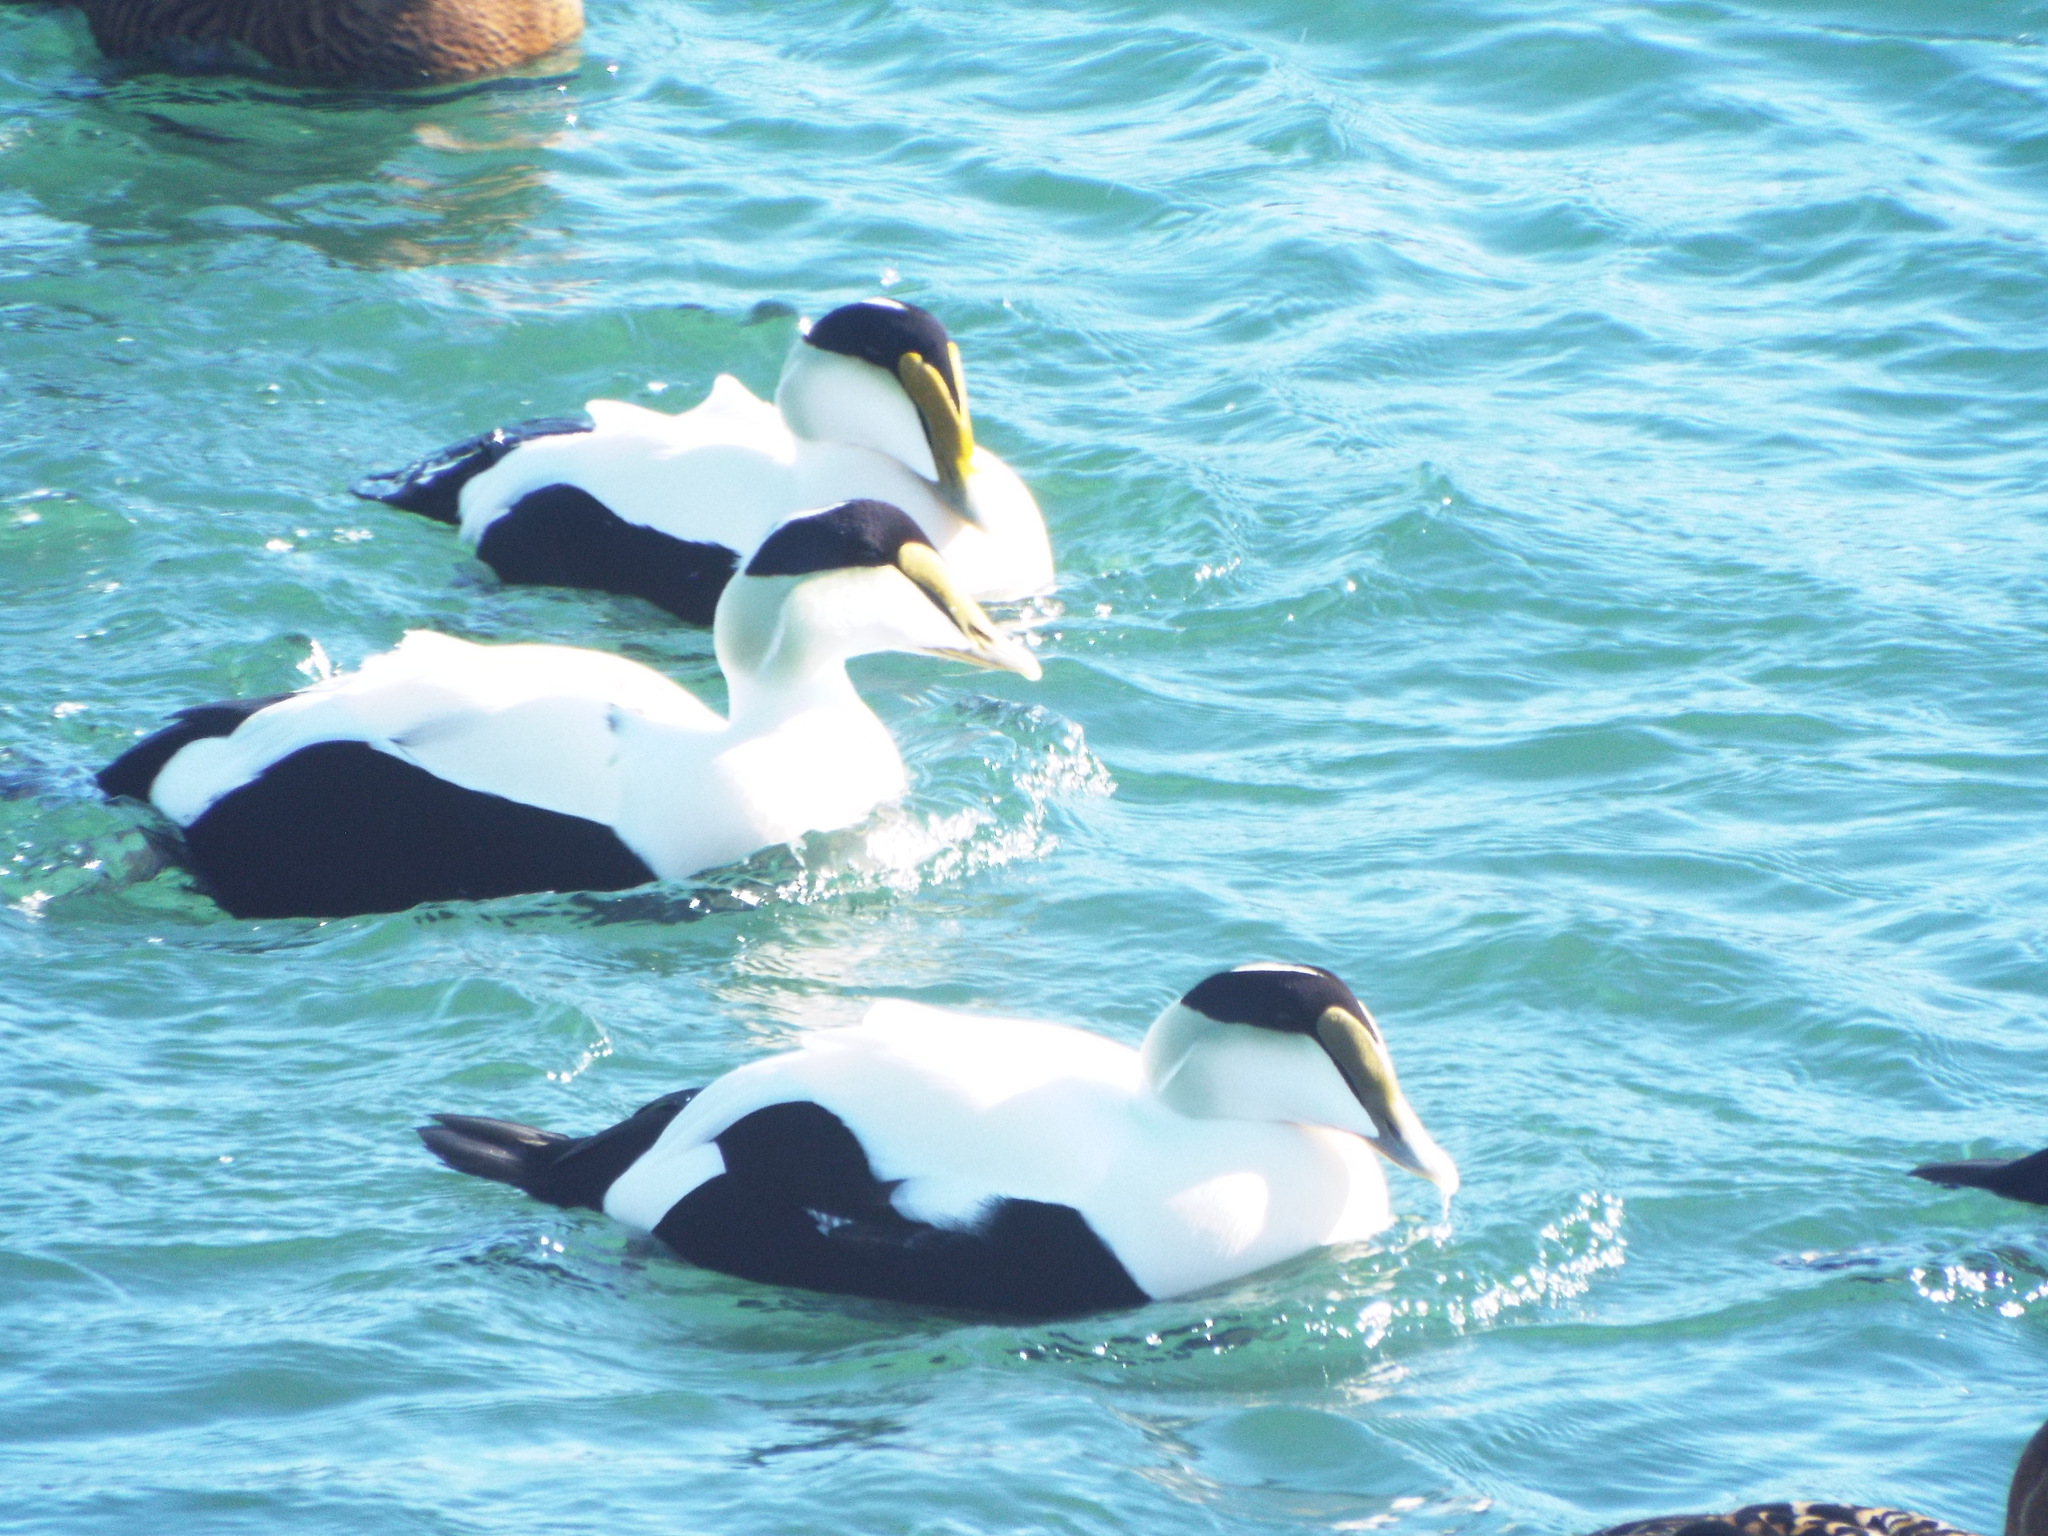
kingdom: Animalia
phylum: Chordata
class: Aves
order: Anseriformes
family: Anatidae
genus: Somateria
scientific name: Somateria mollissima
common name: Common eider
